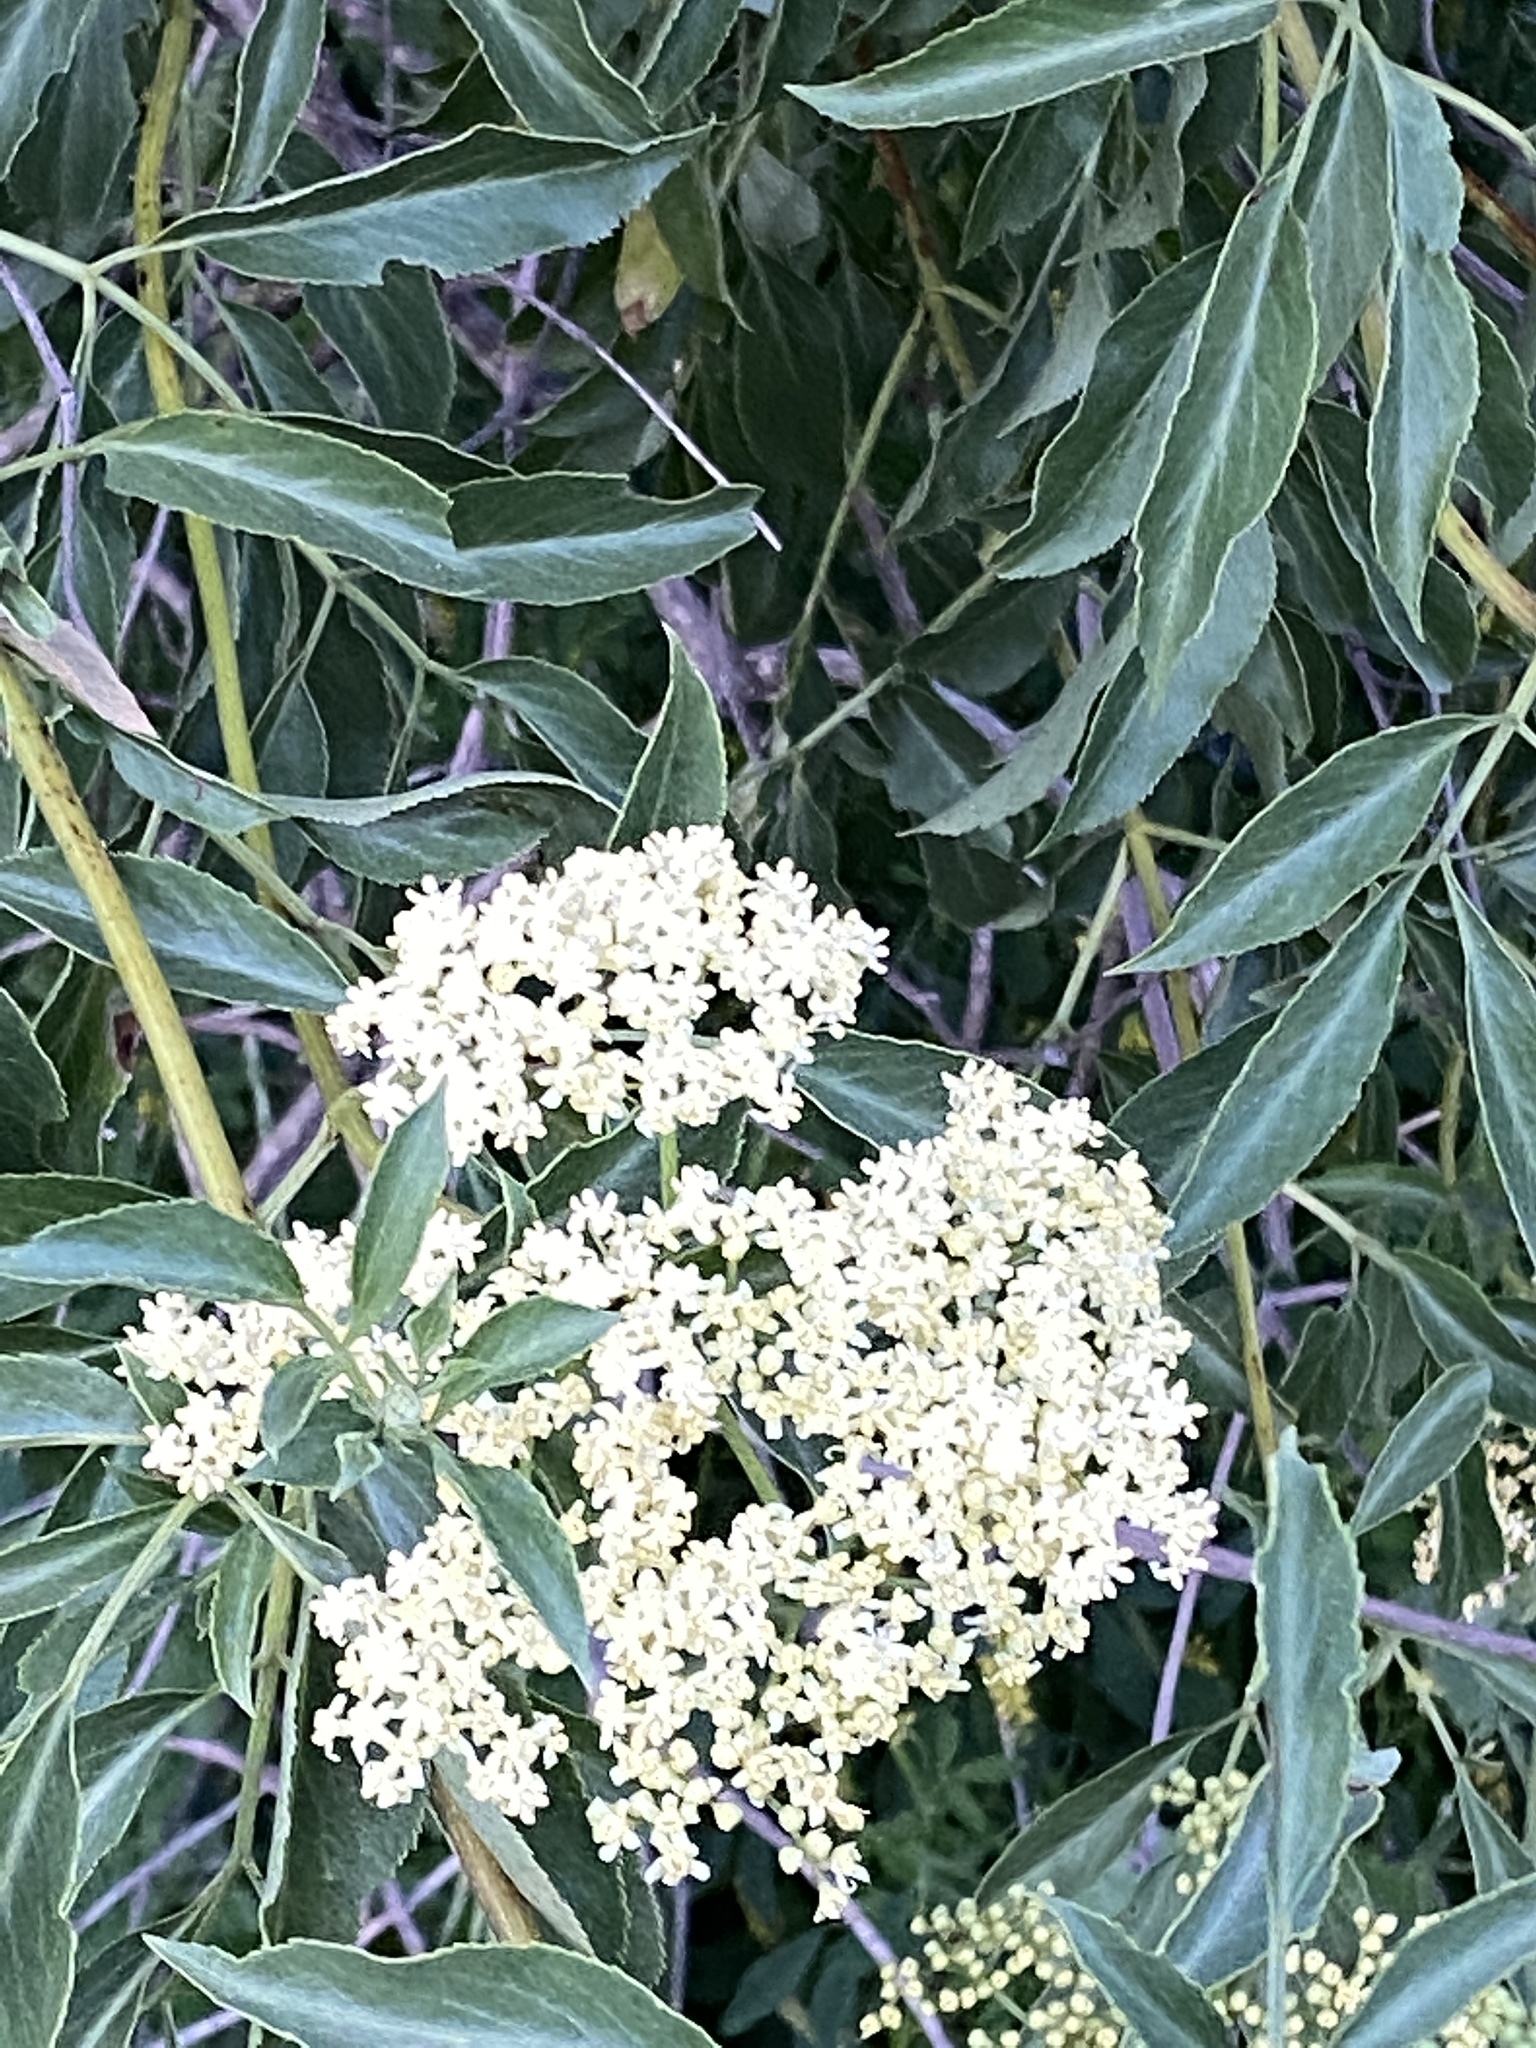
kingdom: Plantae
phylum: Tracheophyta
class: Magnoliopsida
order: Dipsacales
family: Viburnaceae
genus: Sambucus
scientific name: Sambucus cerulea
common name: Blue elder
